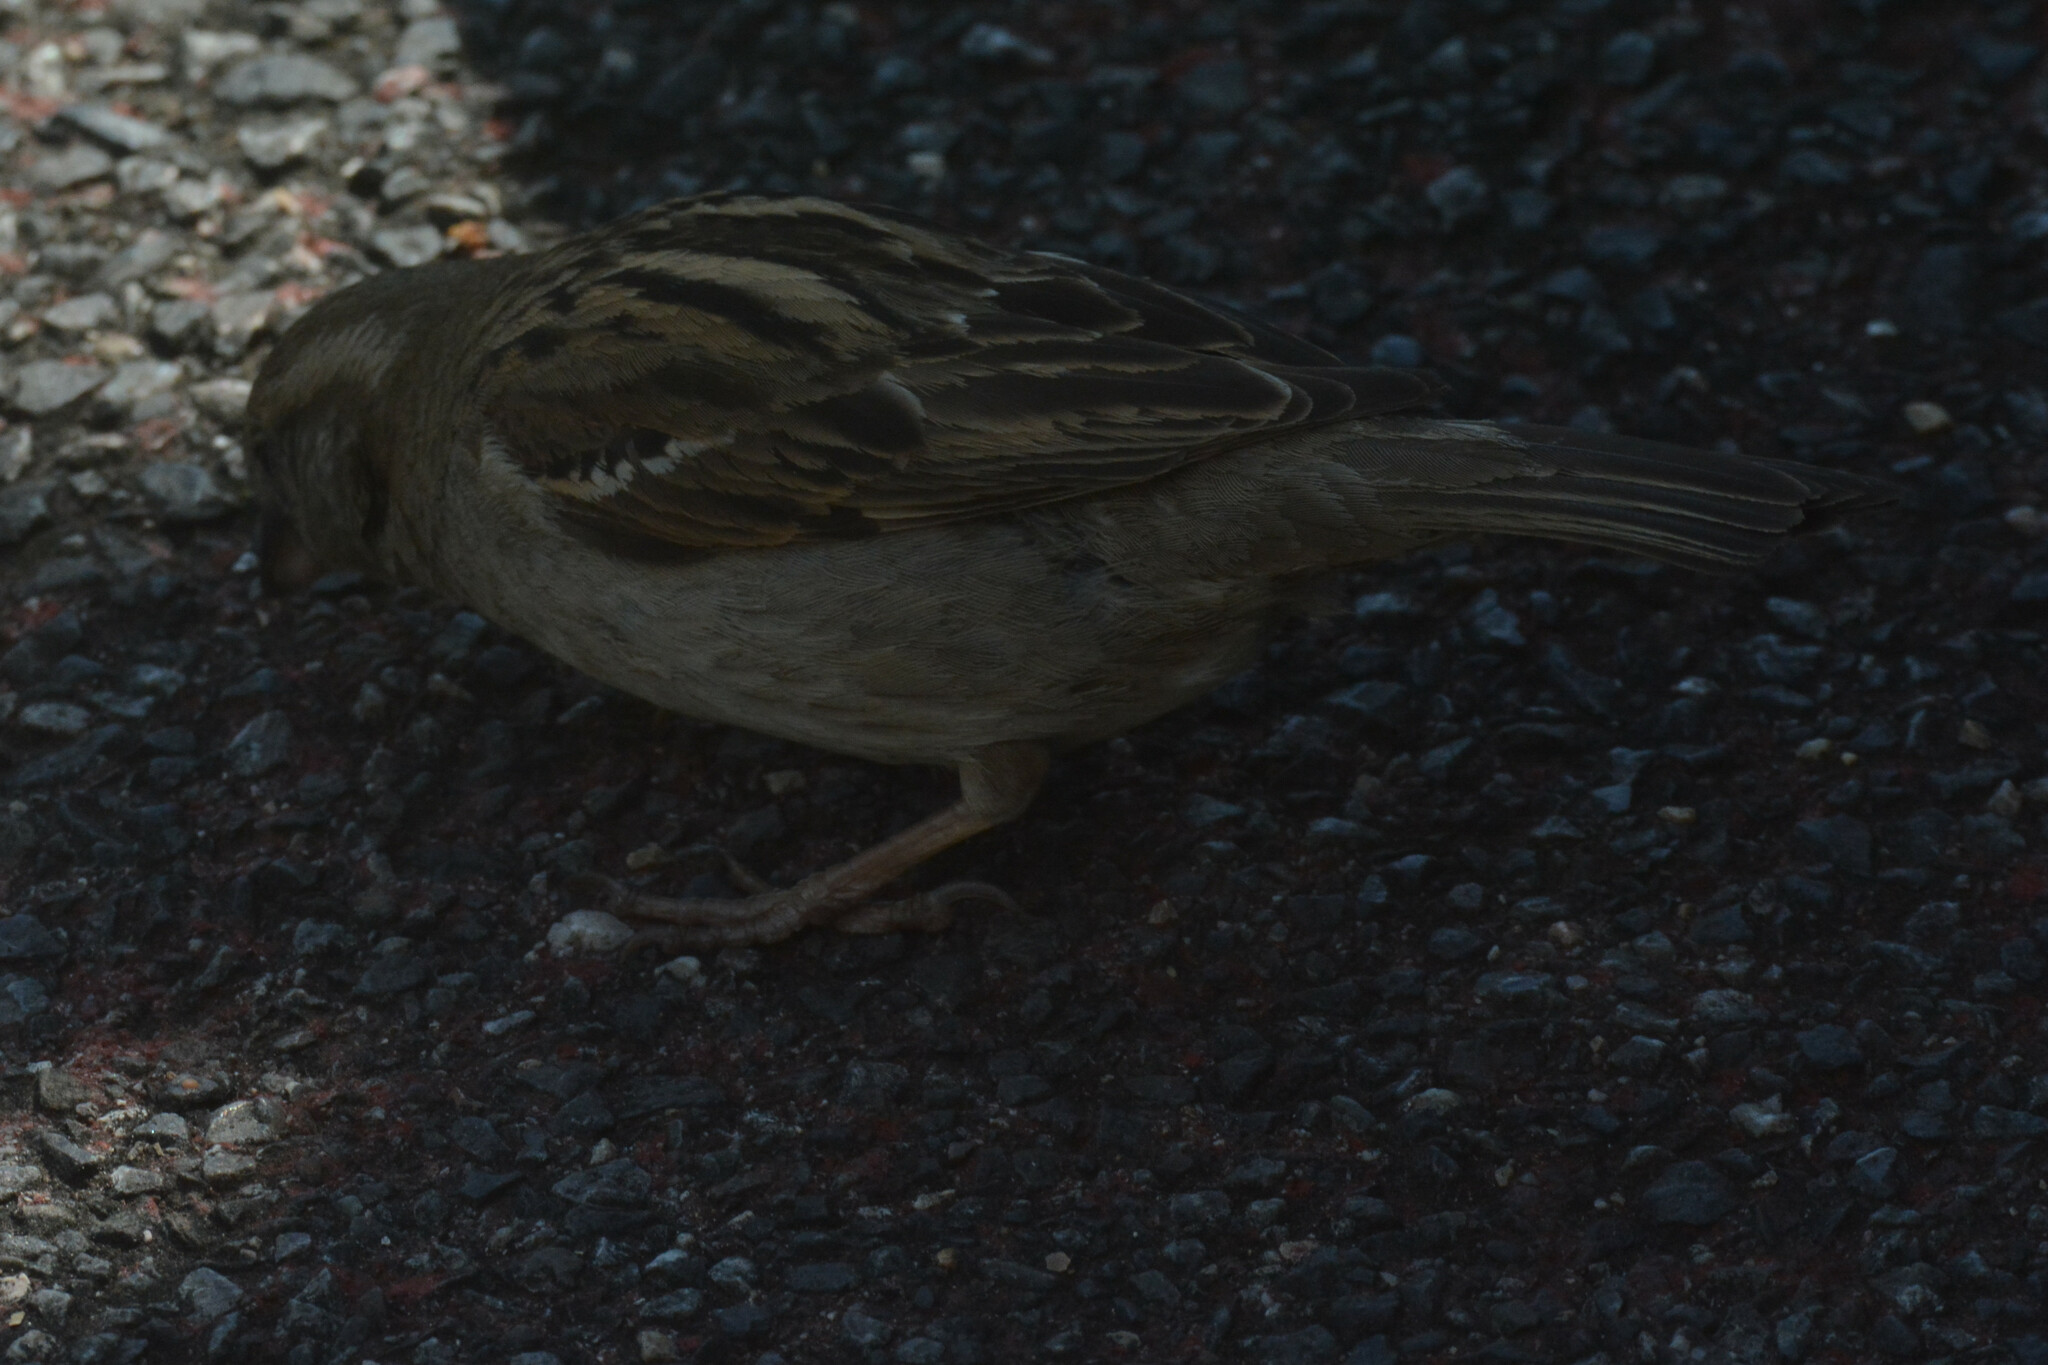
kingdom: Animalia
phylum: Chordata
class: Aves
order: Passeriformes
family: Passeridae
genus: Passer
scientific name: Passer domesticus
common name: House sparrow
